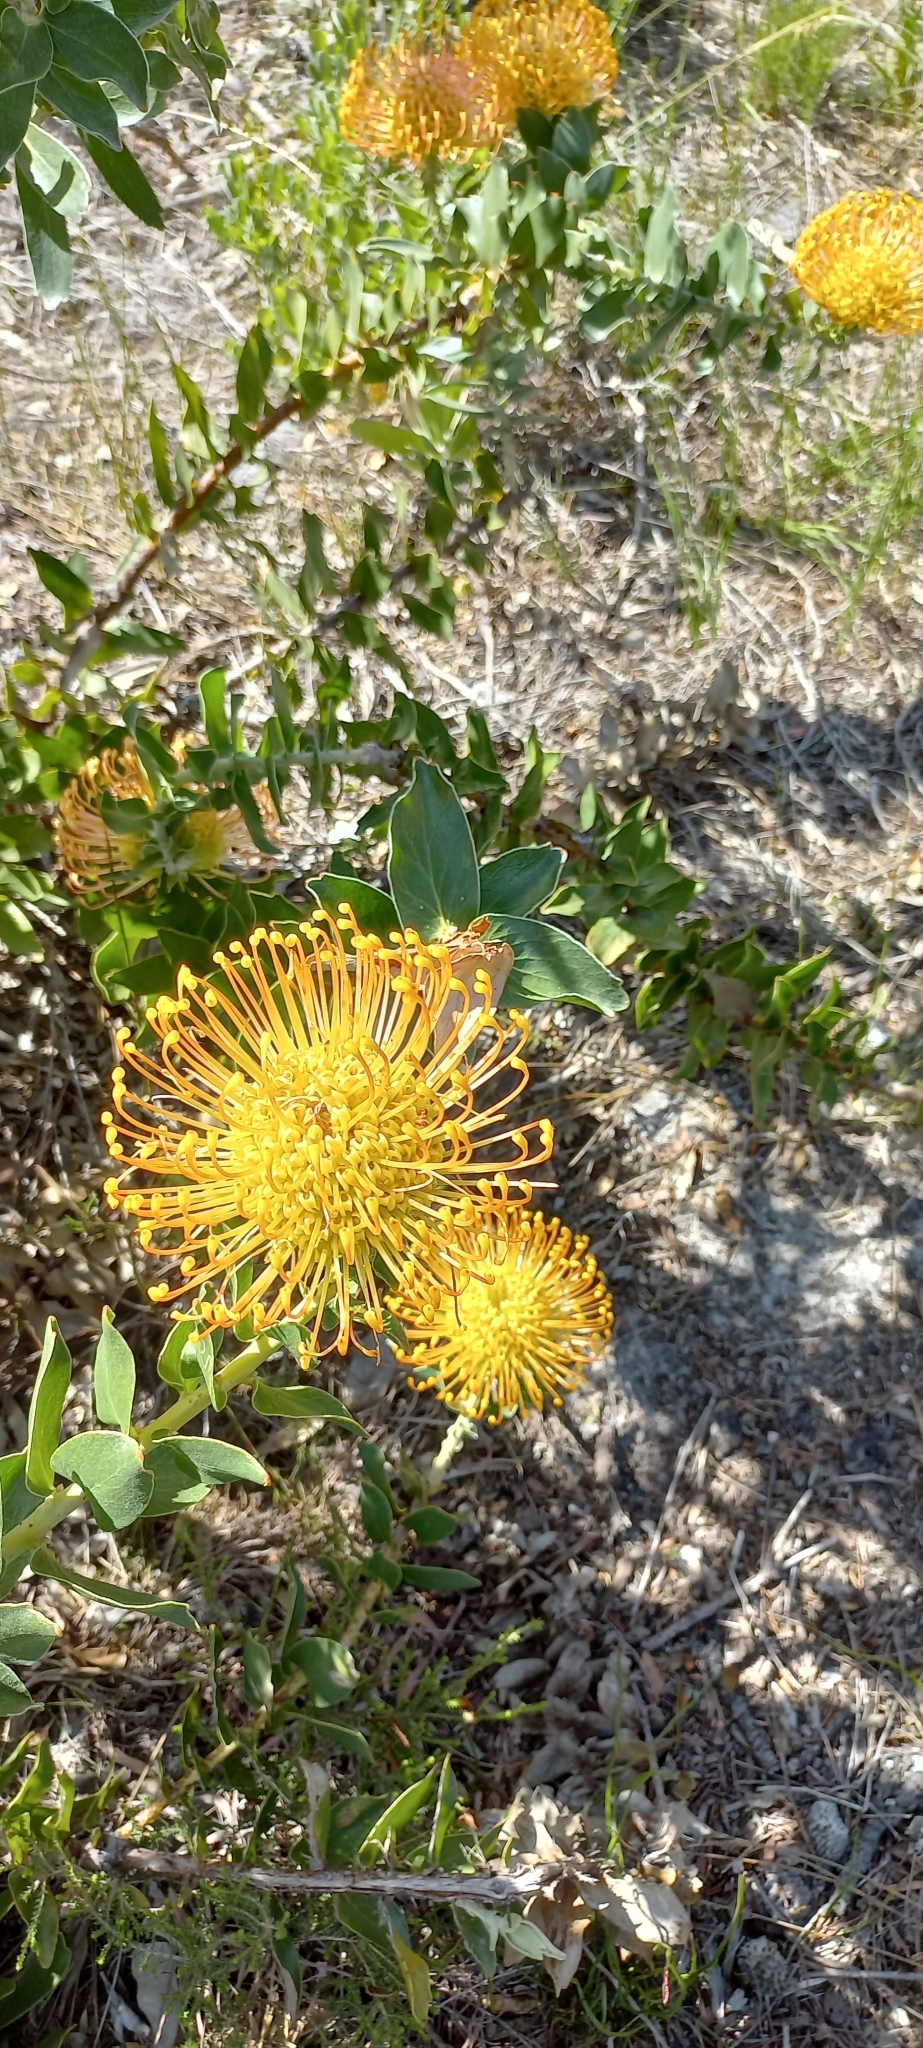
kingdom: Plantae
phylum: Tracheophyta
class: Magnoliopsida
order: Proteales
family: Proteaceae
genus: Leucospermum
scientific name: Leucospermum cordifolium
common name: Red pincushion-protea
